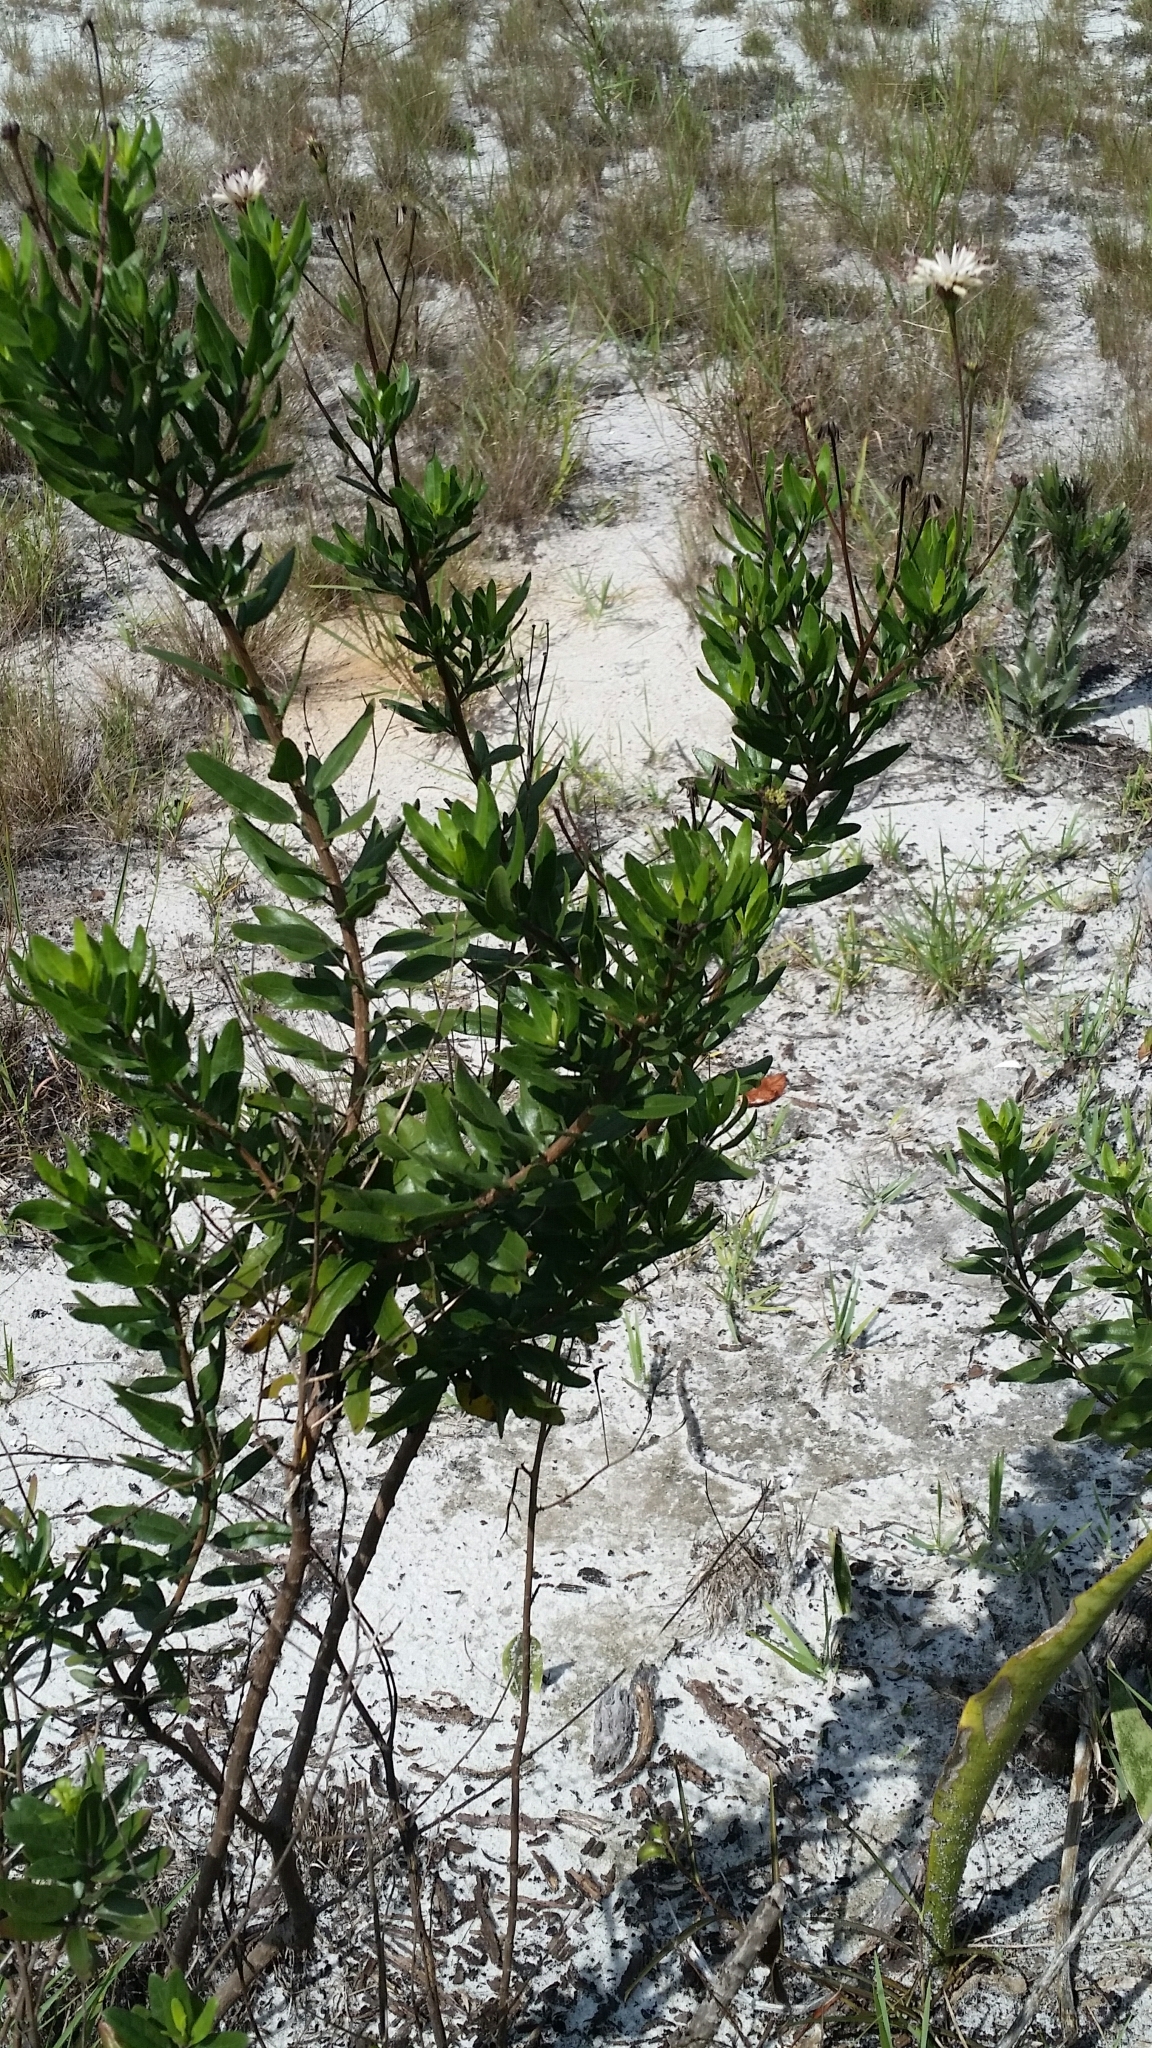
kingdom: Plantae
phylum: Tracheophyta
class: Magnoliopsida
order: Asterales
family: Asteraceae
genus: Palafoxia
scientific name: Palafoxia feayi
